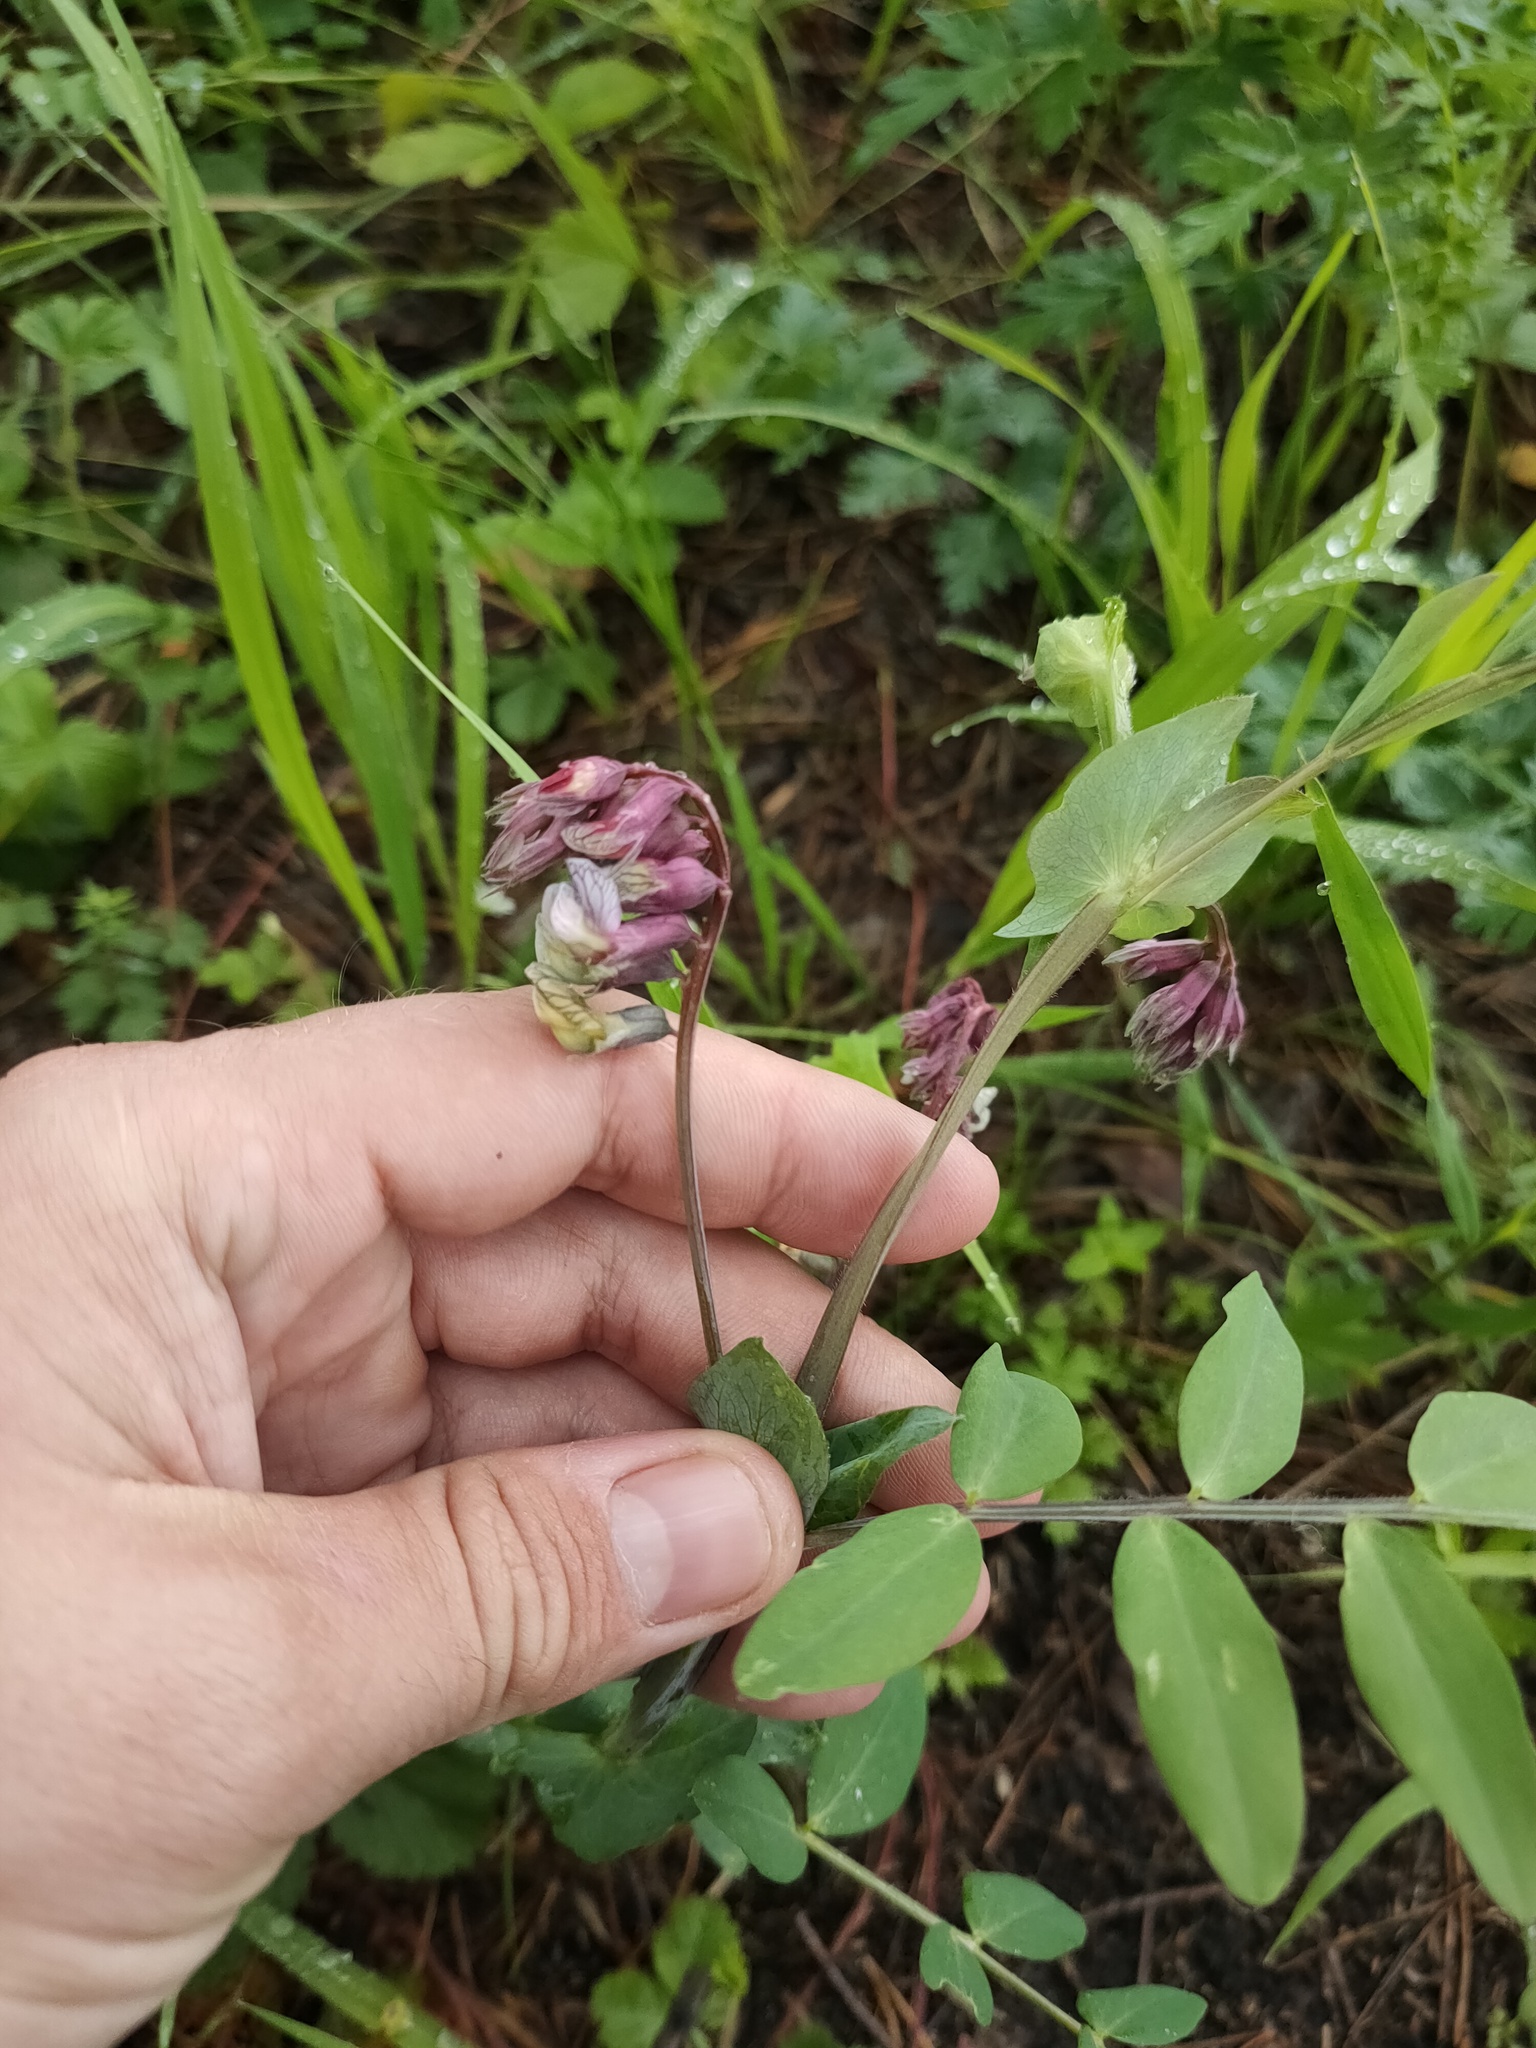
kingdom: Plantae
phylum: Tracheophyta
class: Magnoliopsida
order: Fabales
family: Fabaceae
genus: Lathyrus
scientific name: Lathyrus pisiformis
